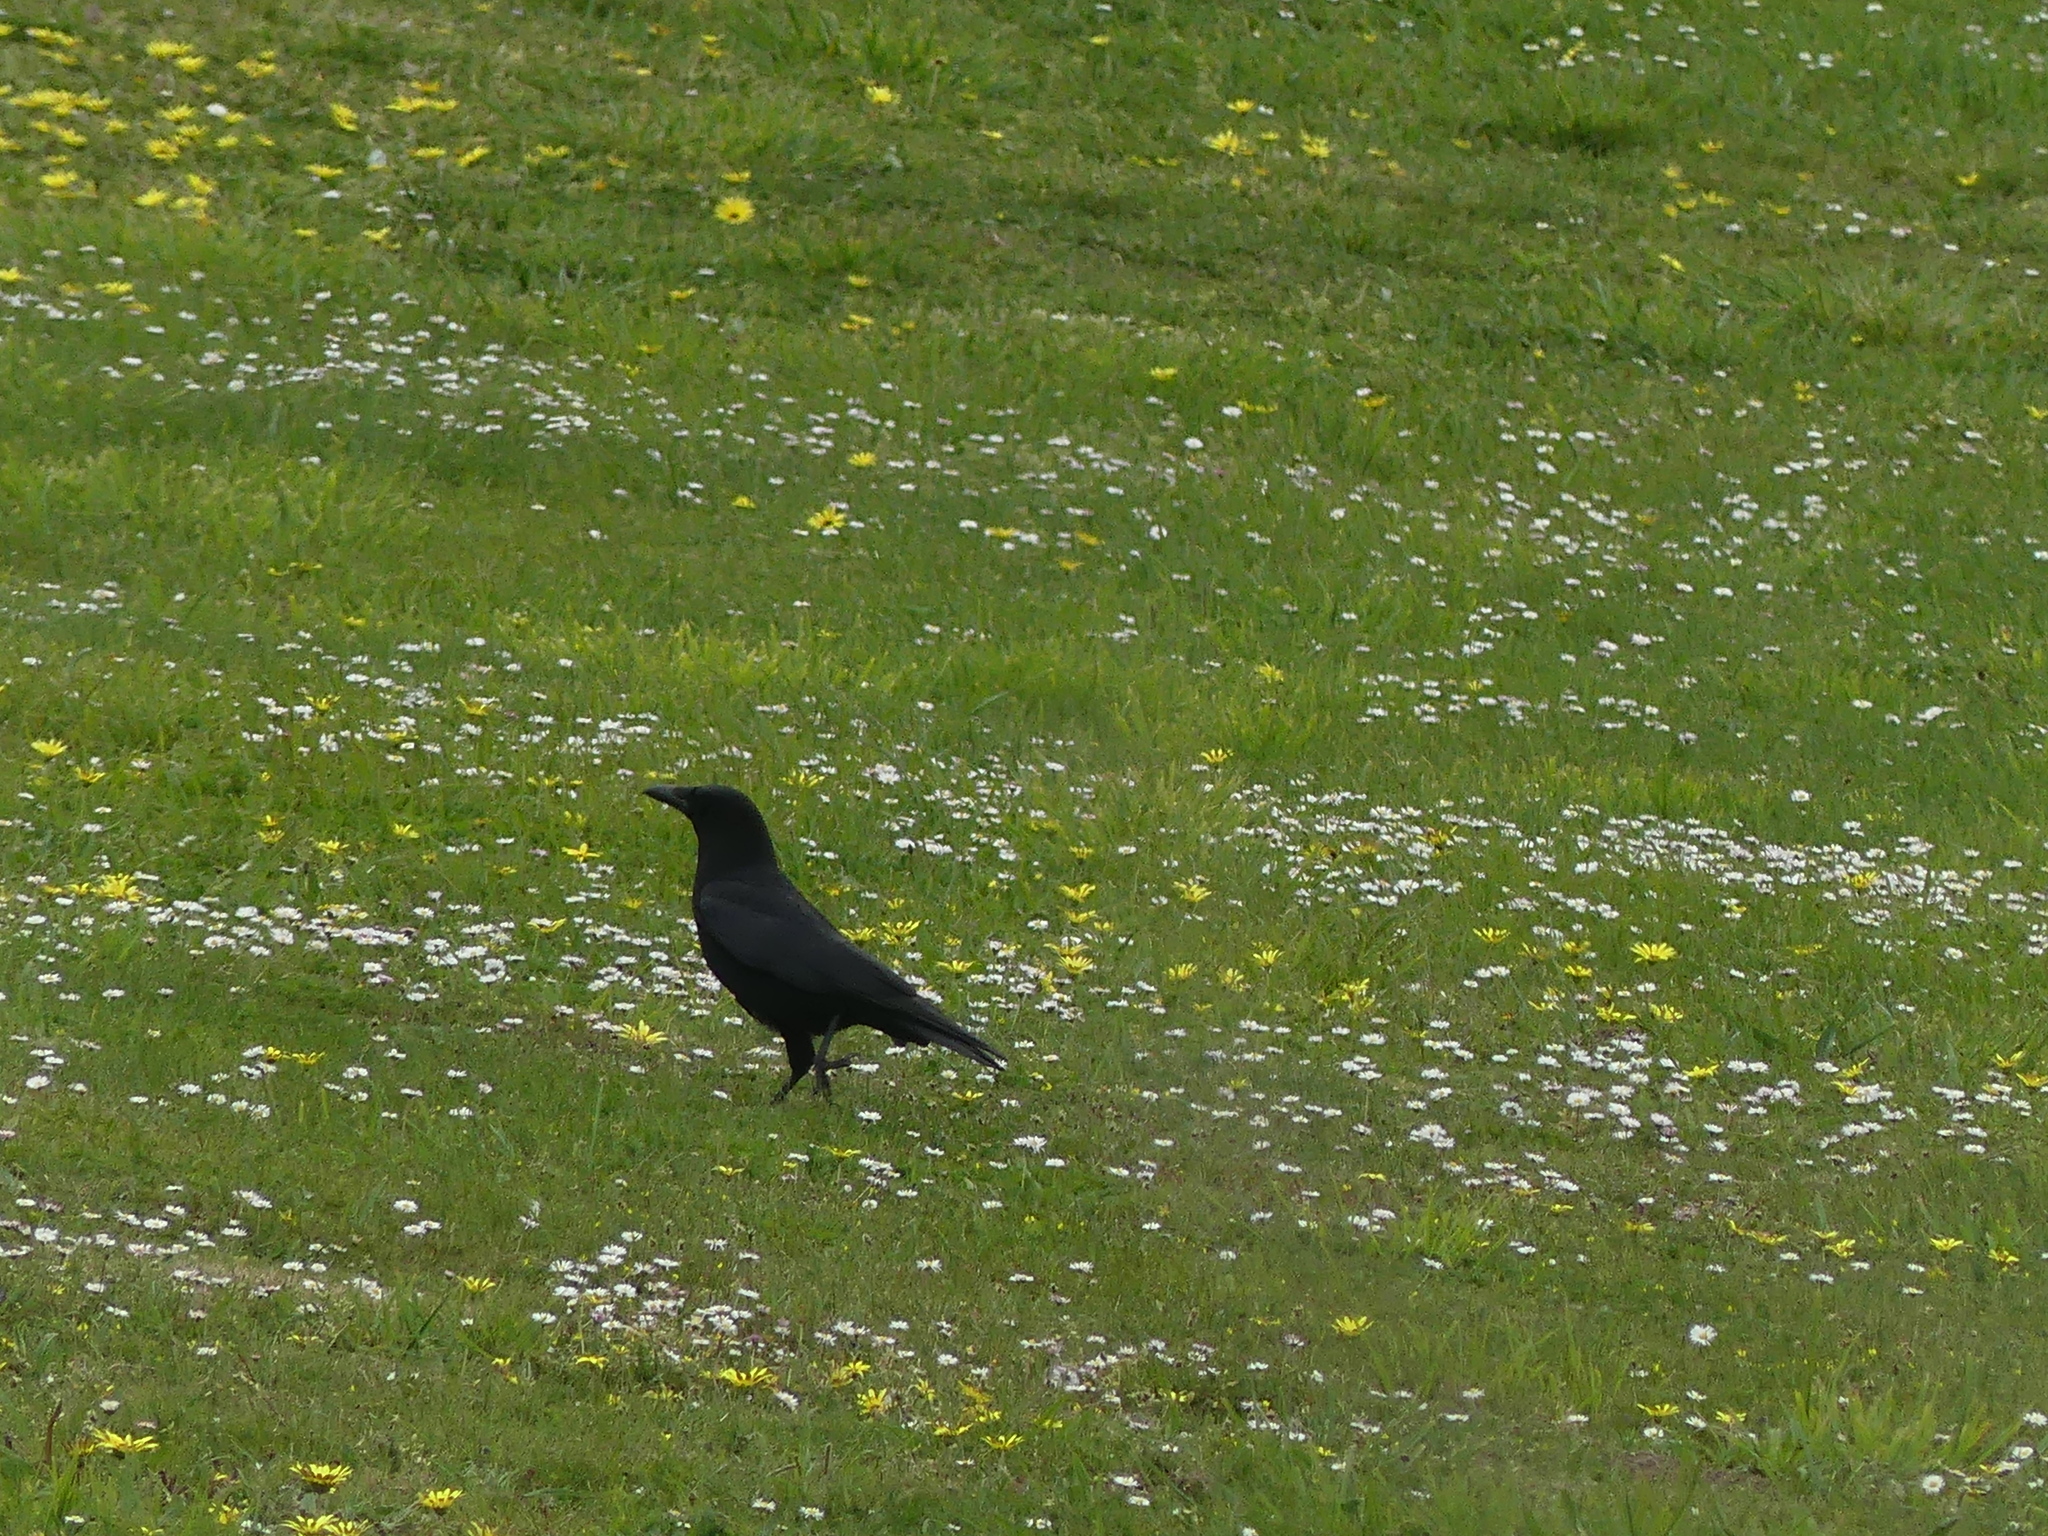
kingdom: Animalia
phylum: Chordata
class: Aves
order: Passeriformes
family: Corvidae
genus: Corvus
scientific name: Corvus corone
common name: Carrion crow
